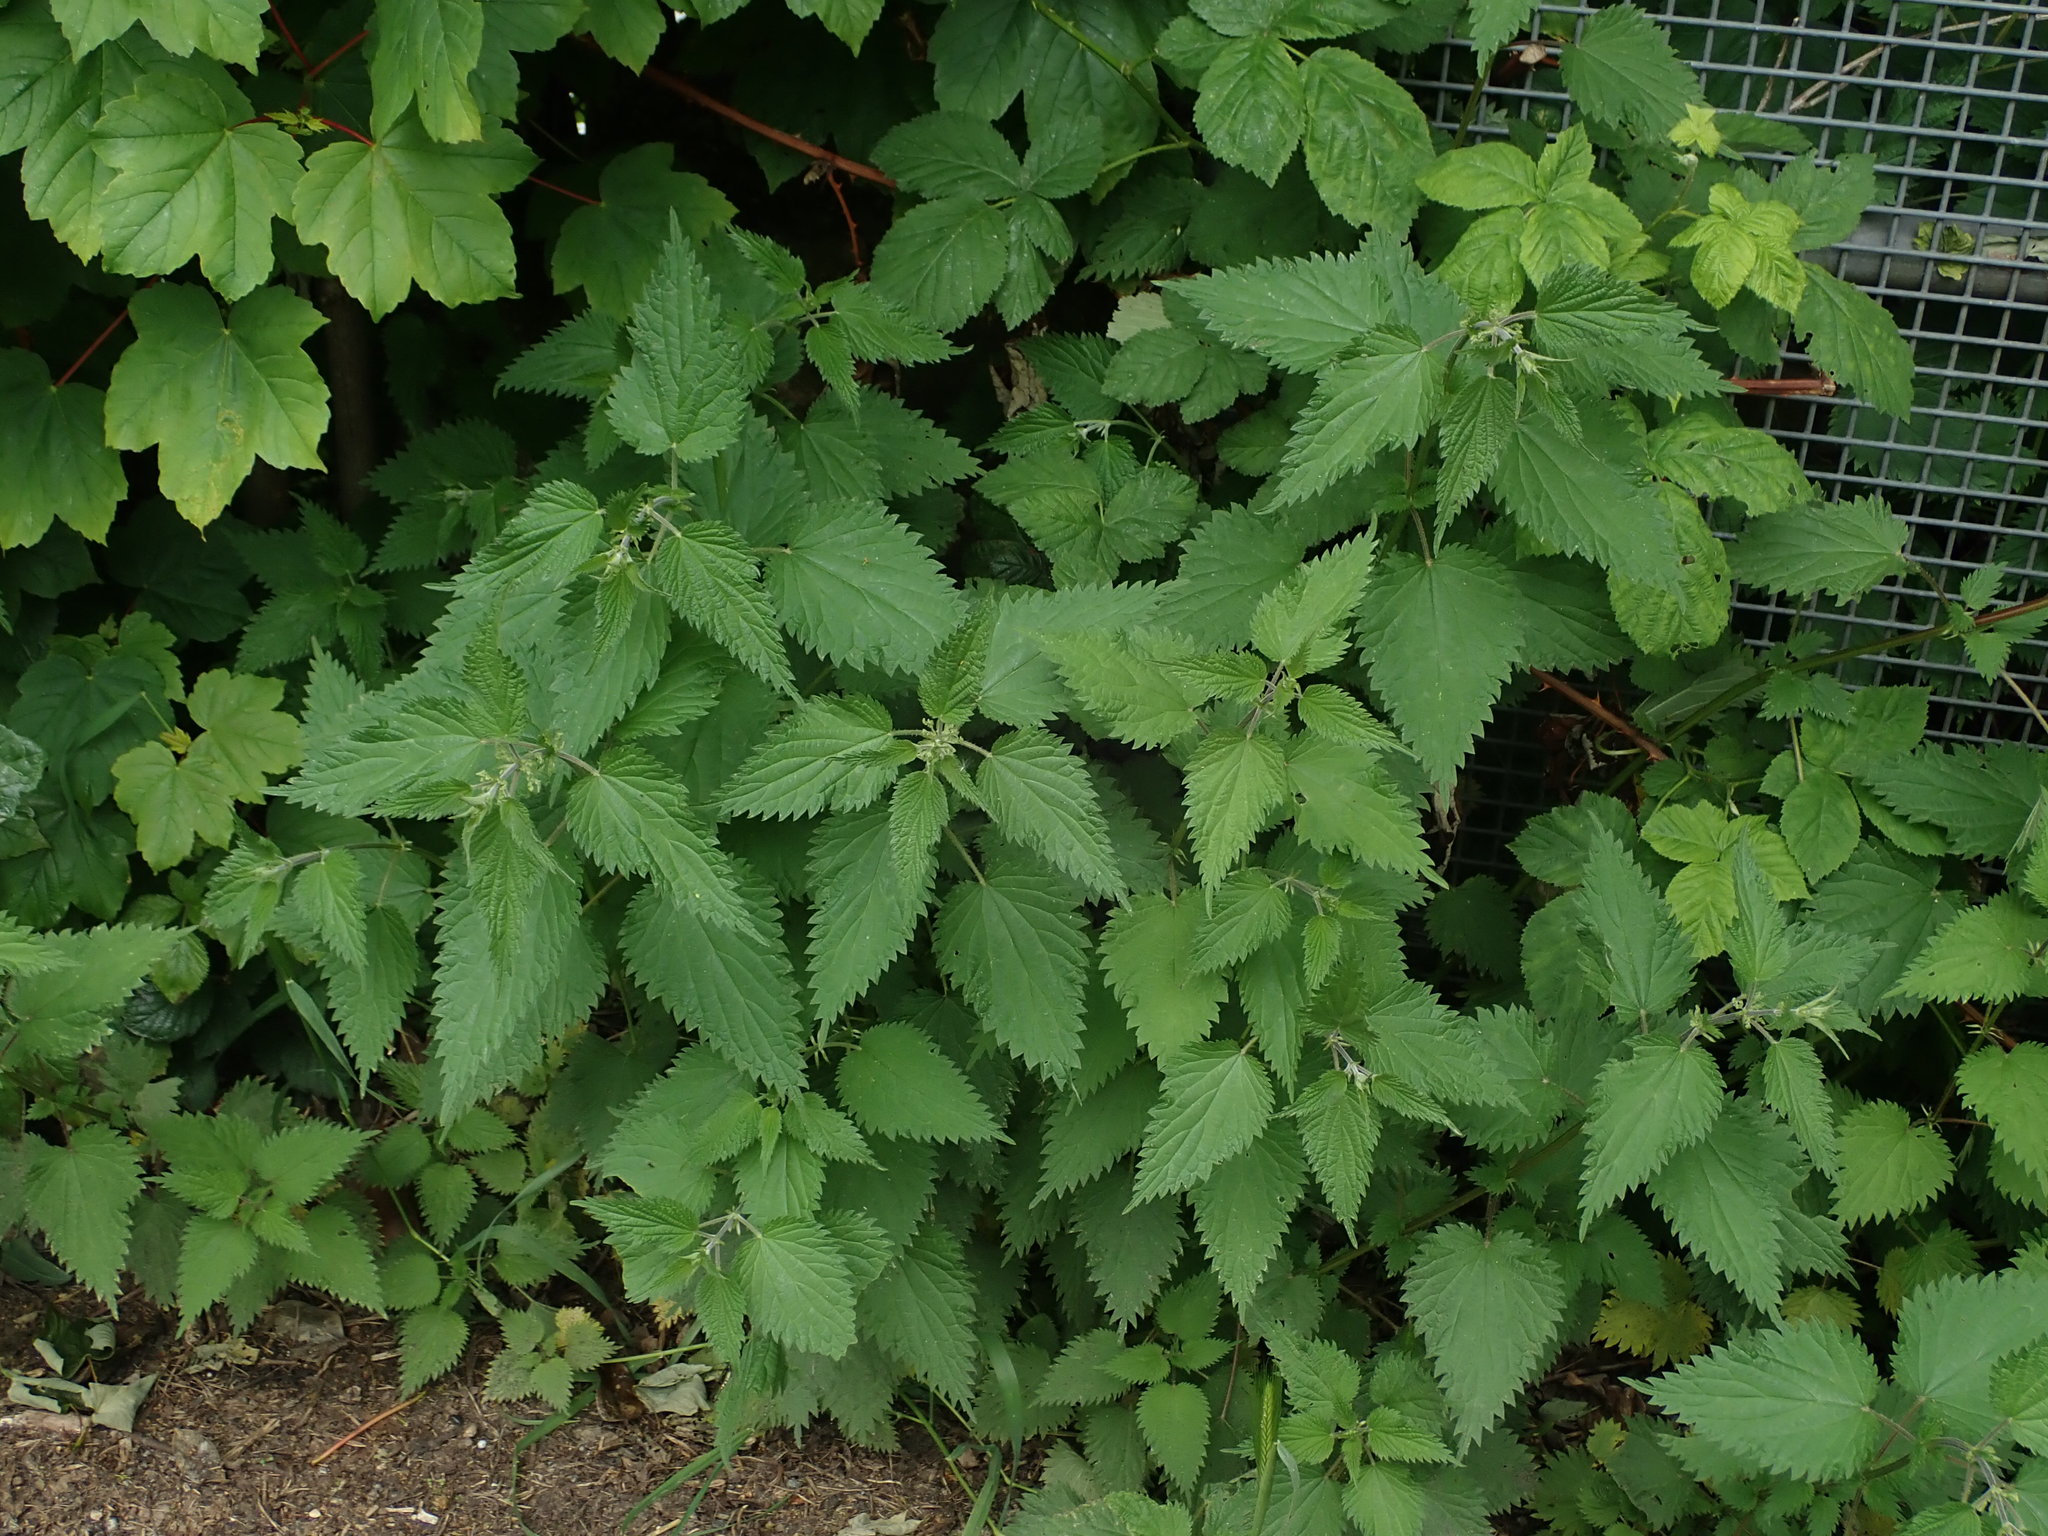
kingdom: Plantae
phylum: Tracheophyta
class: Magnoliopsida
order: Rosales
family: Urticaceae
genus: Urtica
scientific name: Urtica dioica
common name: Common nettle
